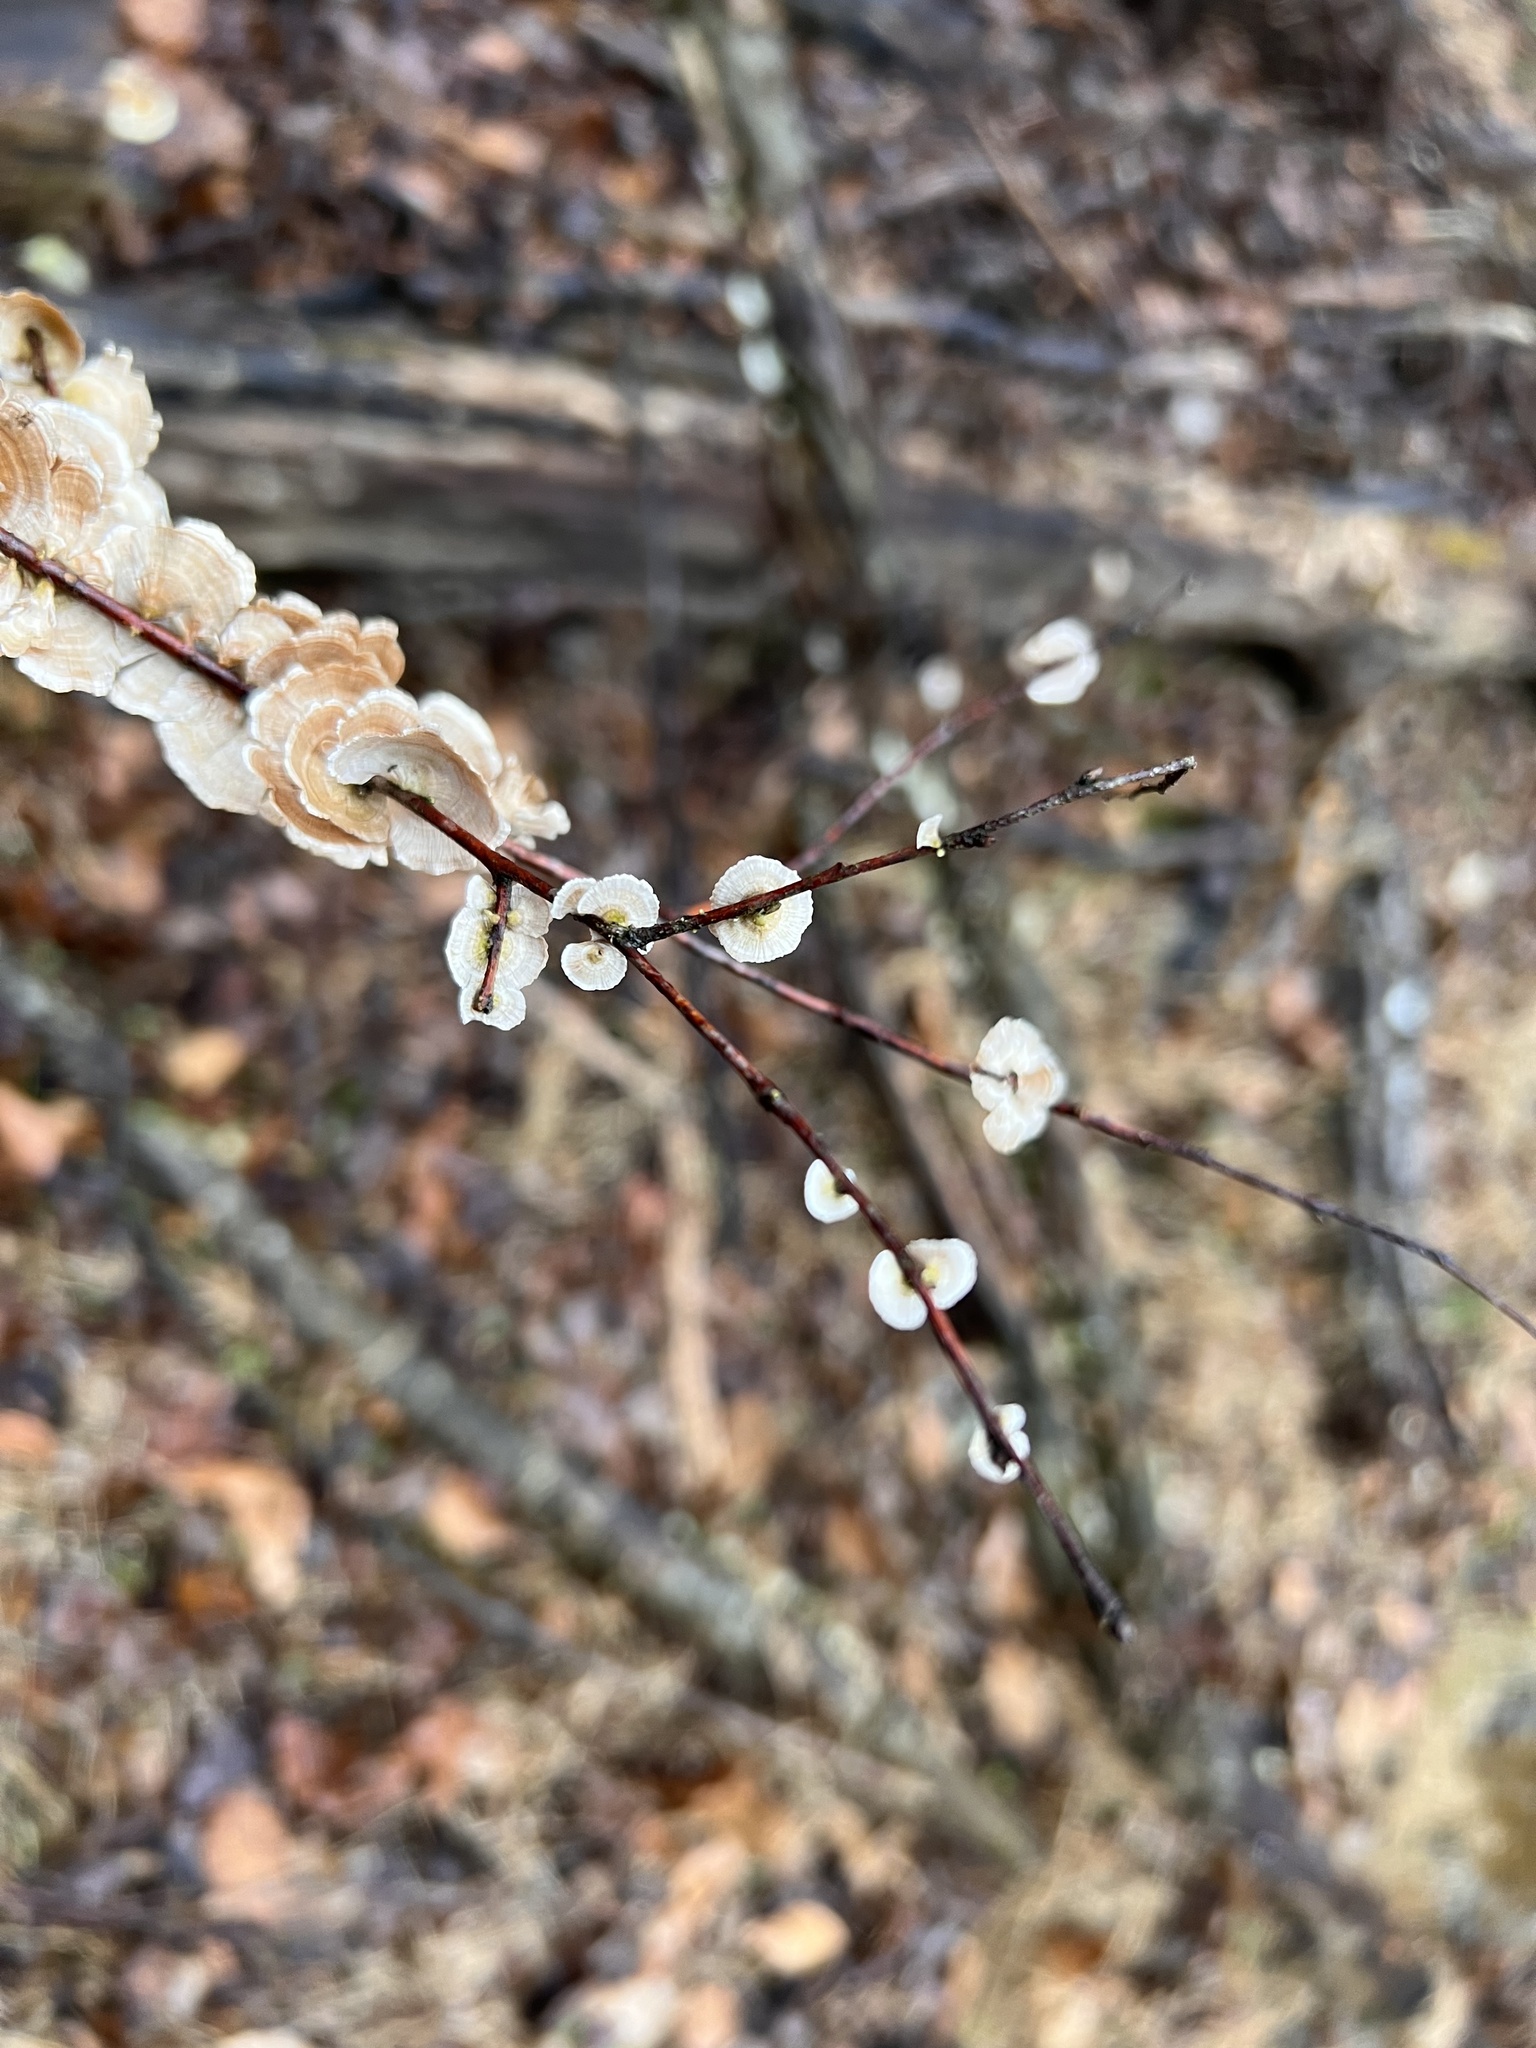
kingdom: Fungi
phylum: Basidiomycota
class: Agaricomycetes
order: Russulales
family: Stereaceae
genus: Stereum
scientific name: Stereum striatum
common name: Silky parchment
